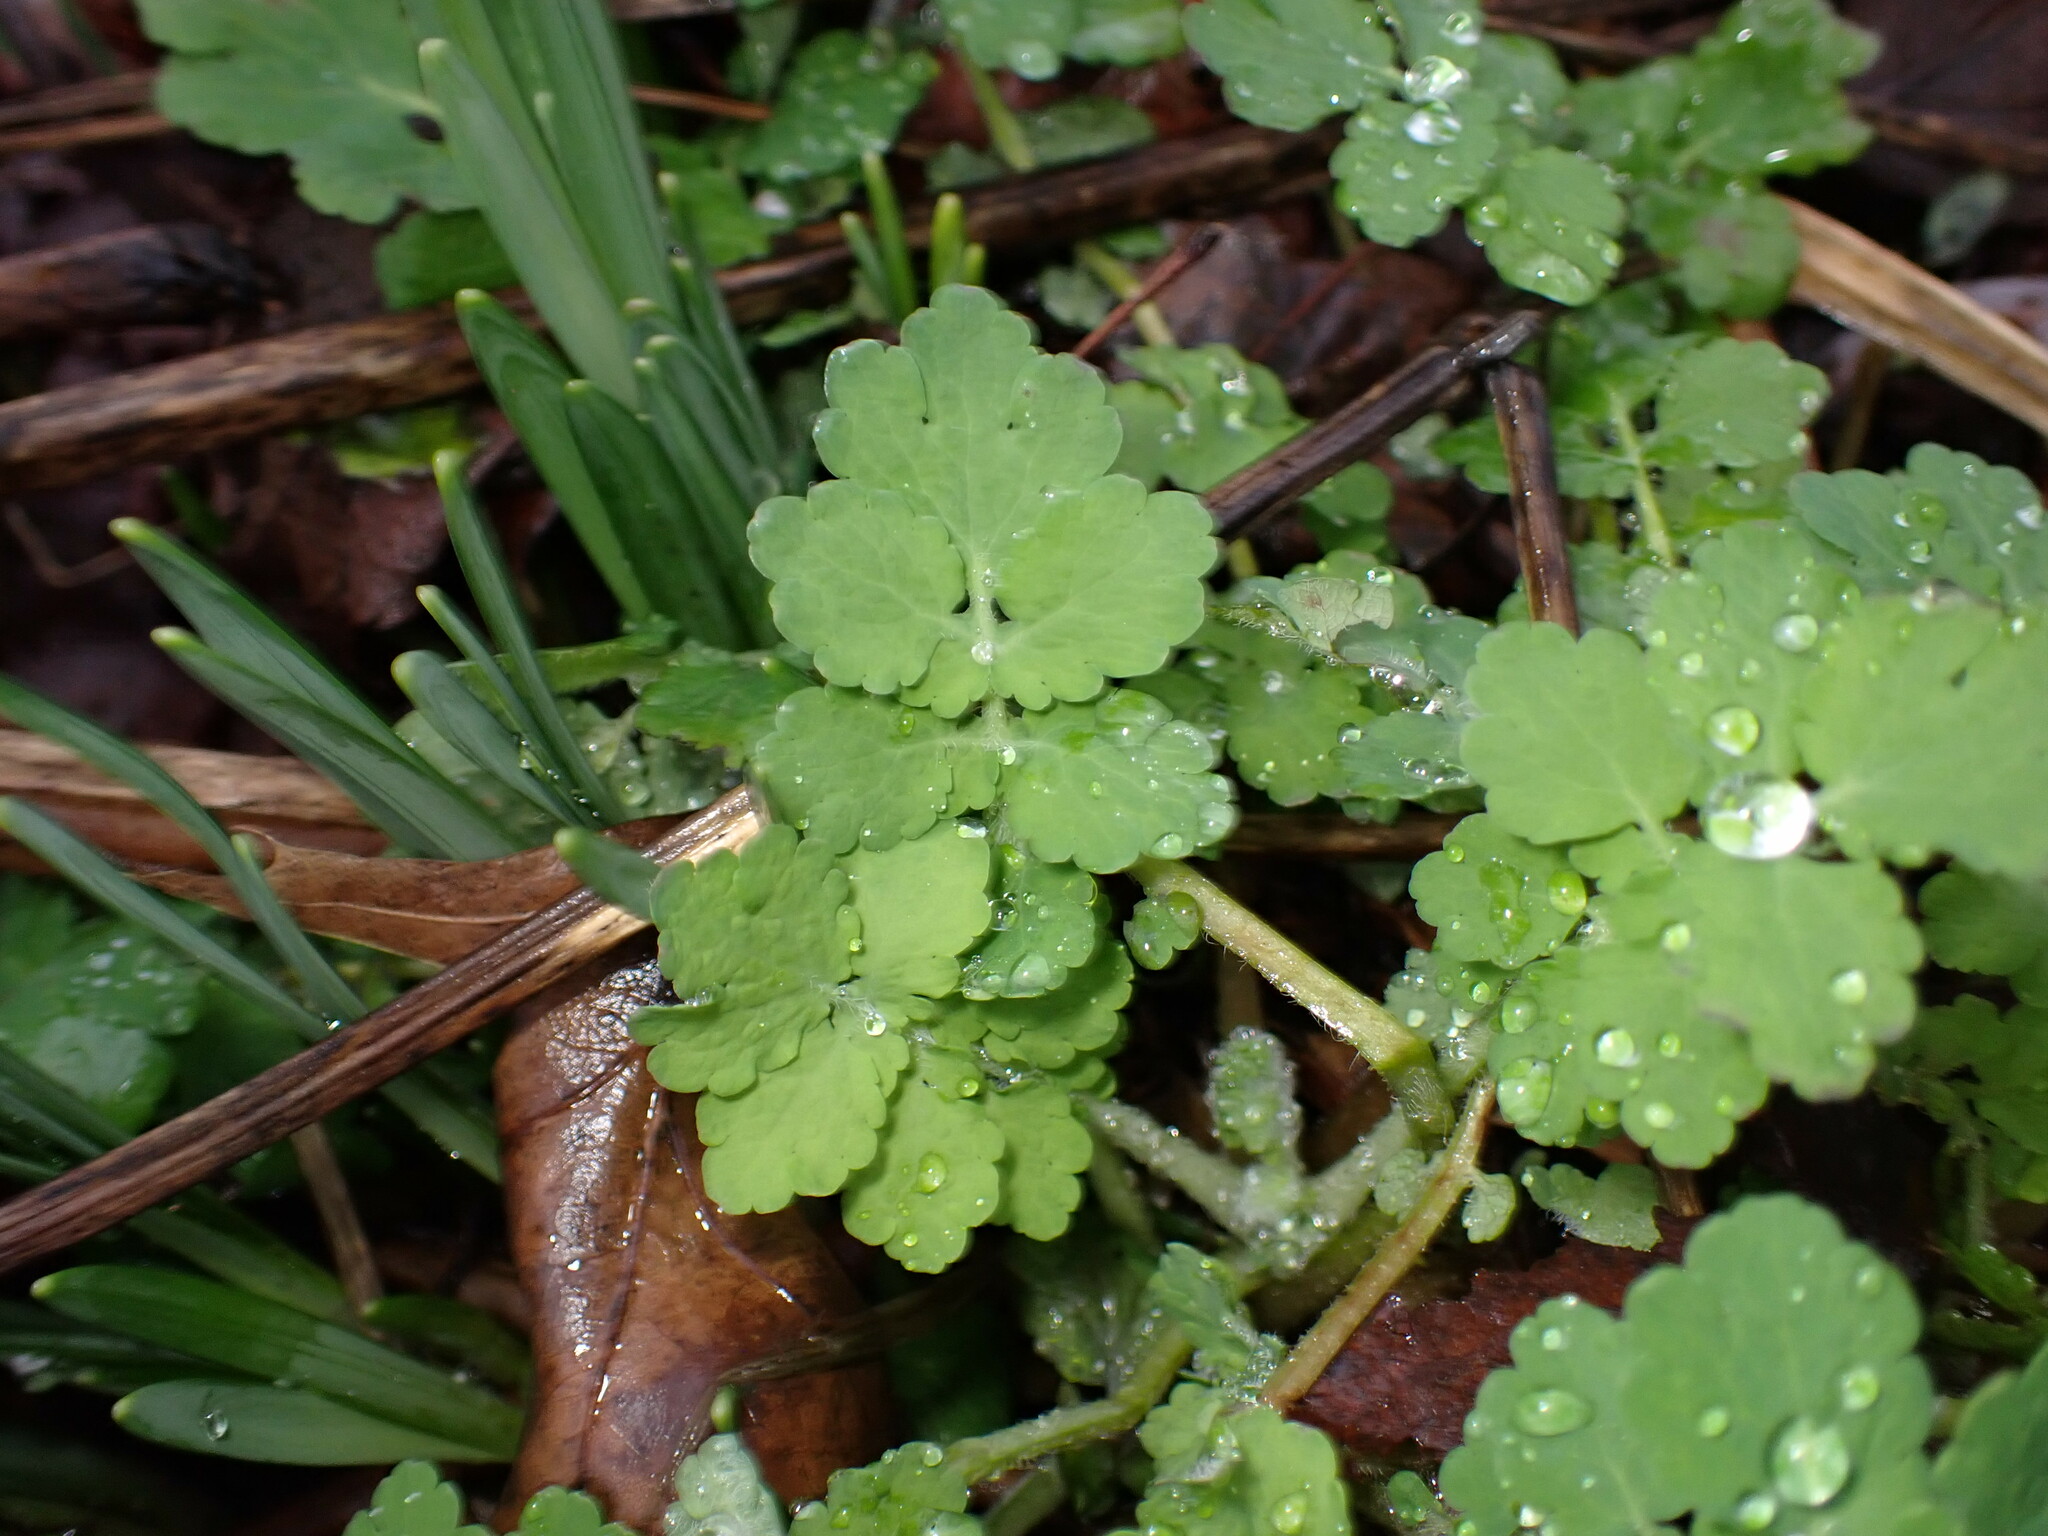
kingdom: Plantae
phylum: Tracheophyta
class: Magnoliopsida
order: Ranunculales
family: Papaveraceae
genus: Chelidonium
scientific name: Chelidonium majus
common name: Greater celandine
